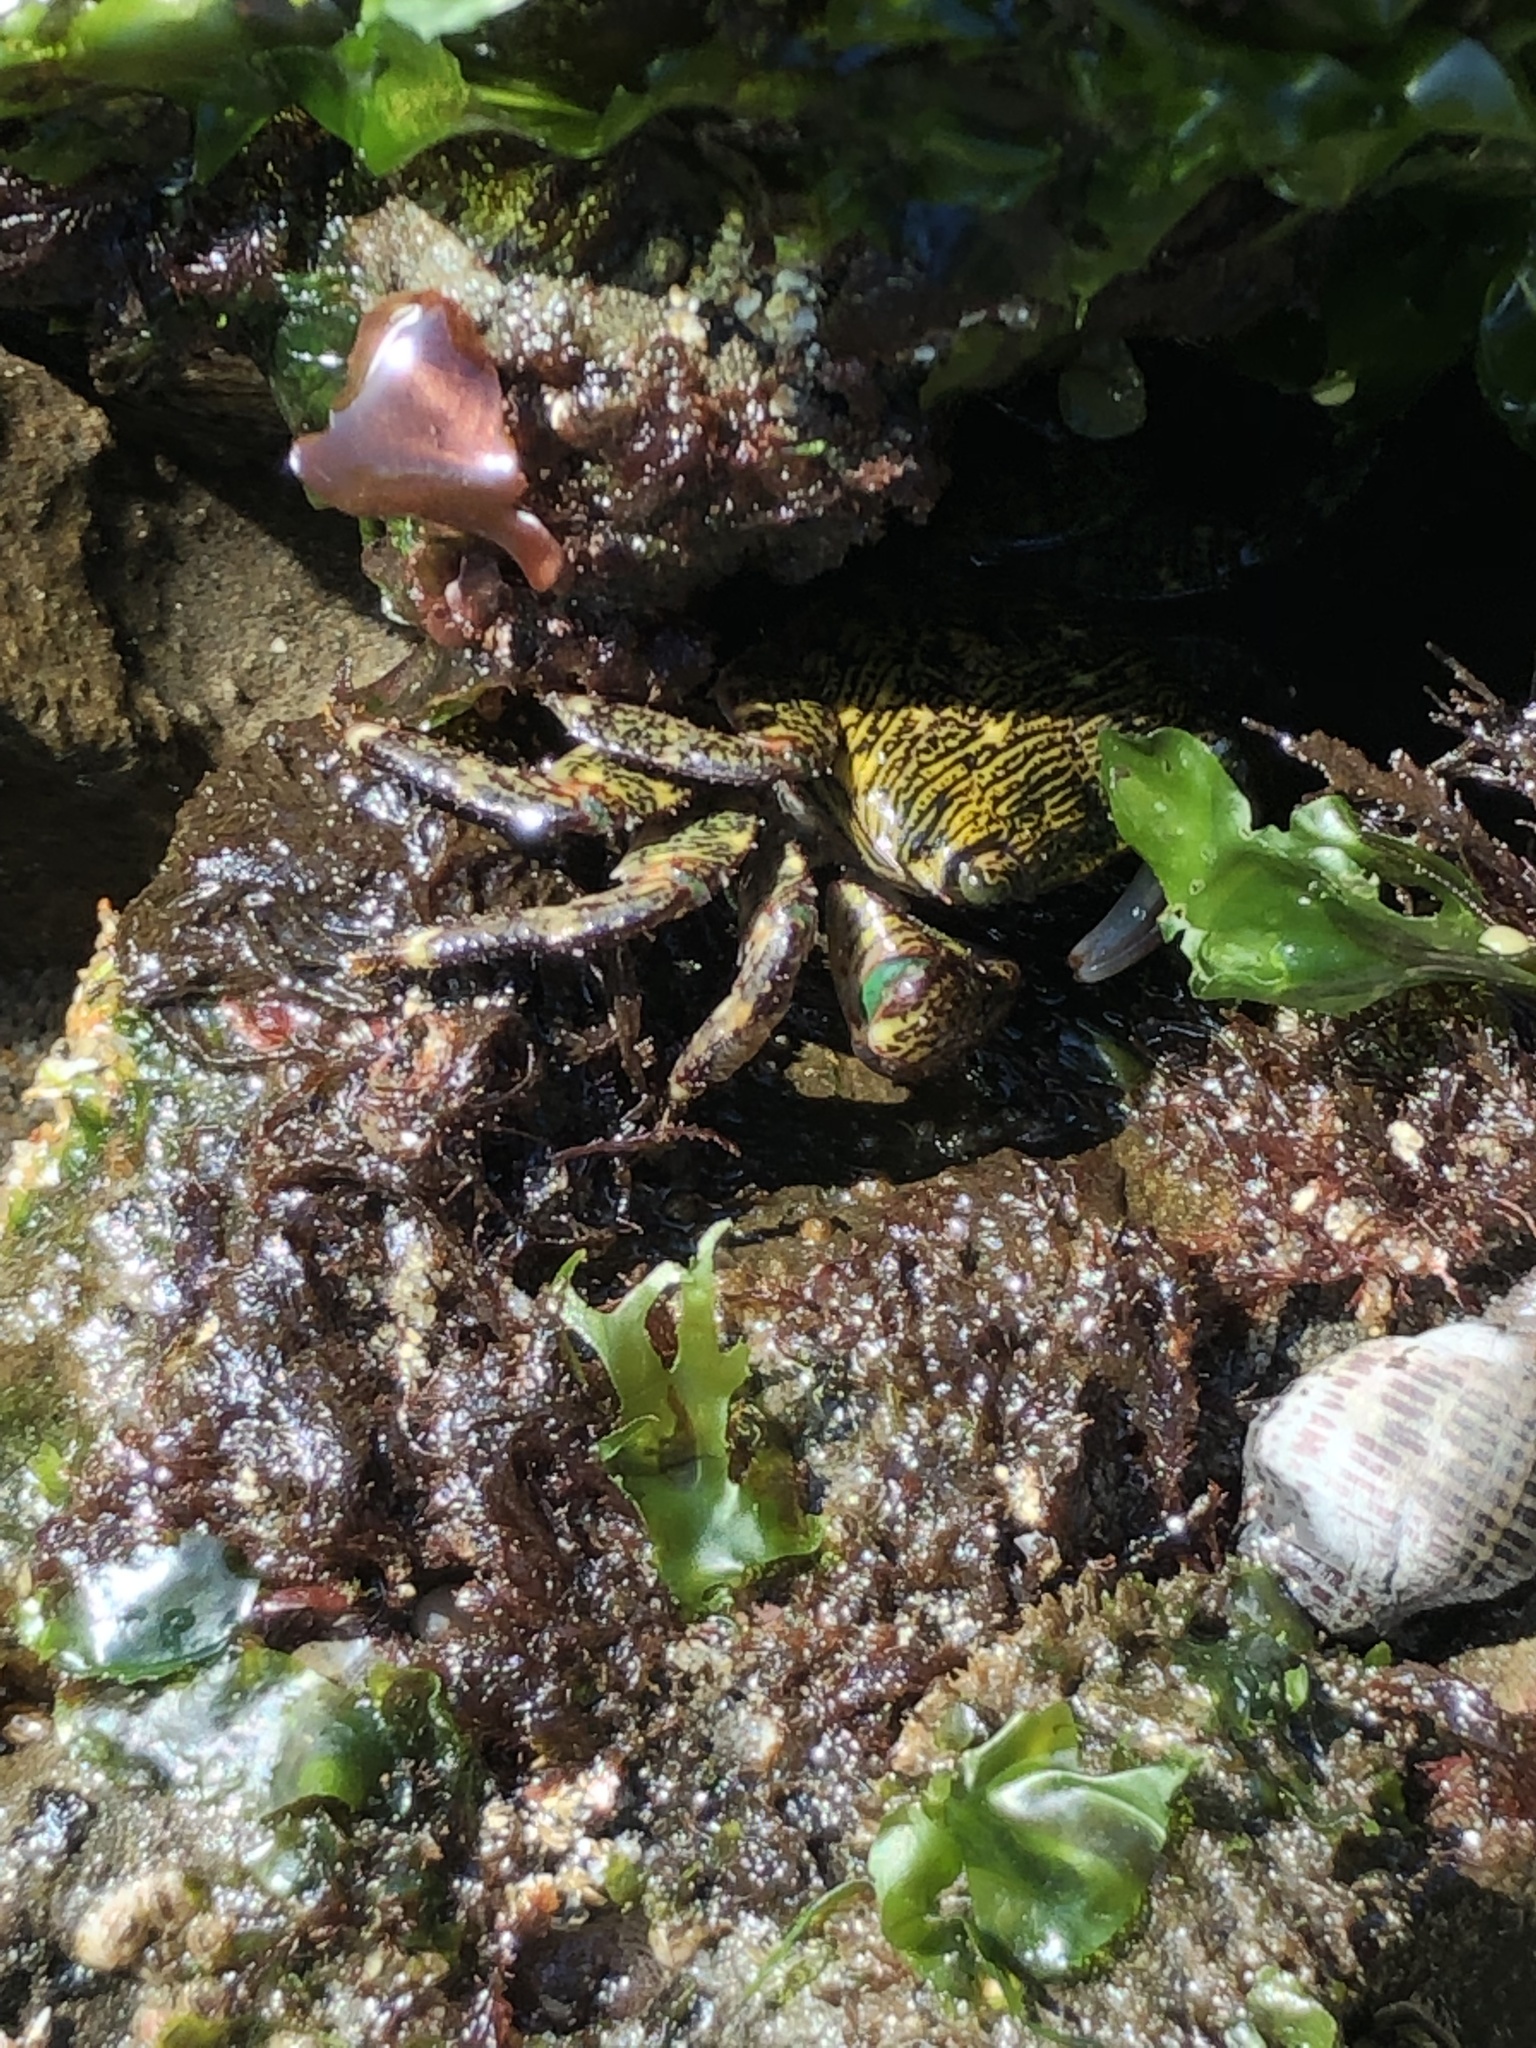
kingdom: Animalia
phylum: Arthropoda
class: Malacostraca
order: Decapoda
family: Grapsidae
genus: Pachygrapsus
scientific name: Pachygrapsus crassipes
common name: Striped shore crab
